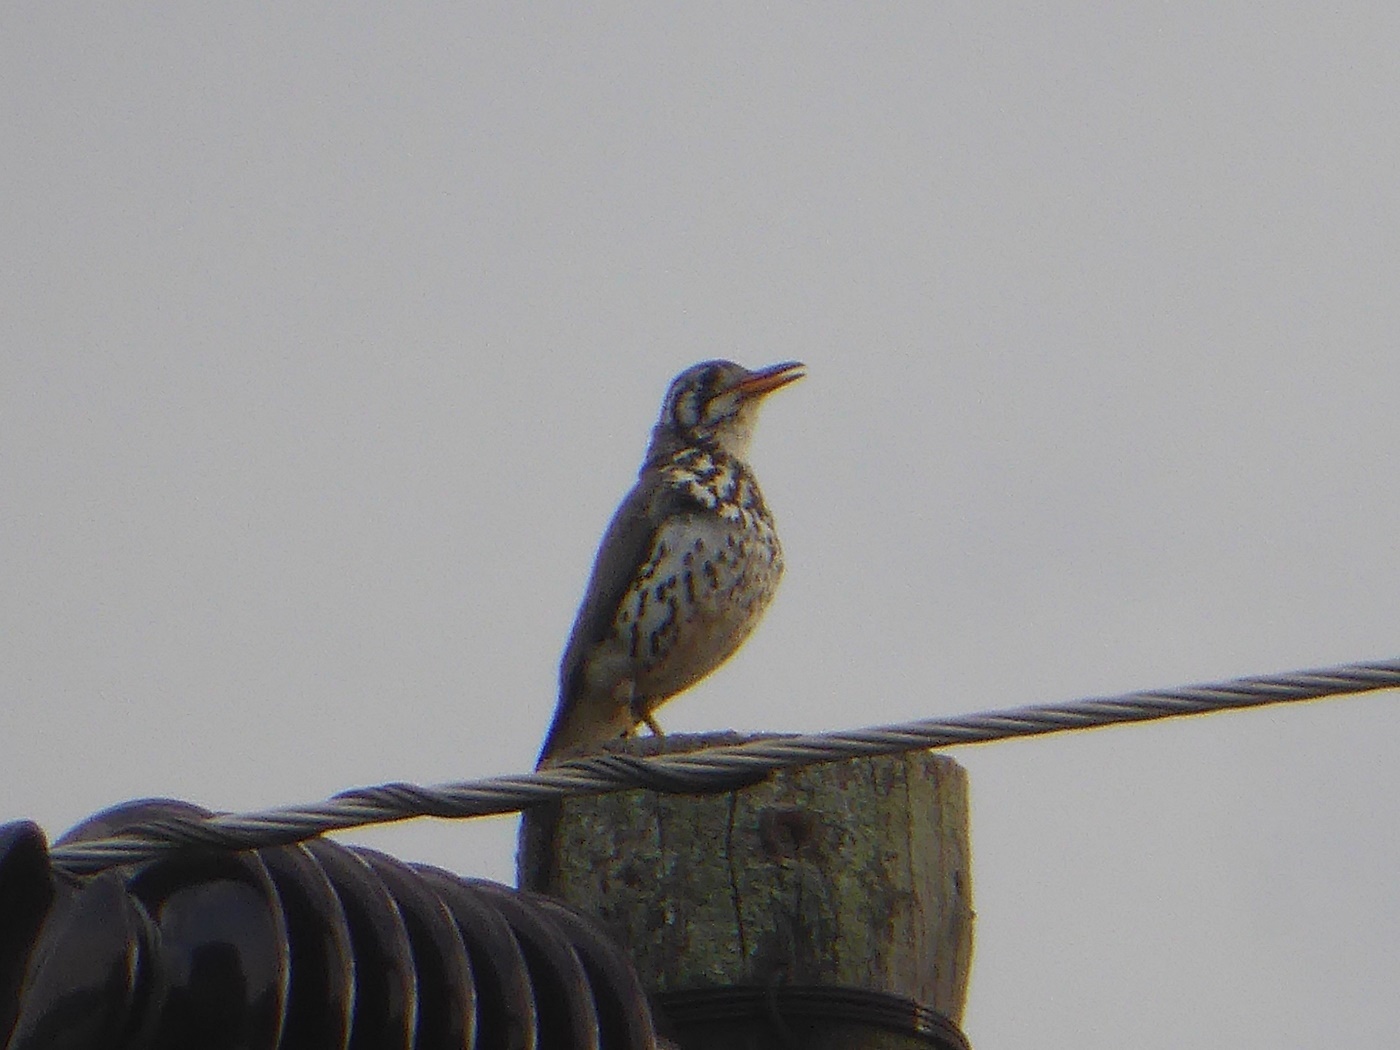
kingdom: Animalia
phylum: Chordata
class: Aves
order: Passeriformes
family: Turdidae
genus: Psophocichla
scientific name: Psophocichla litsitsirupa
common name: Groundscraper thrush
